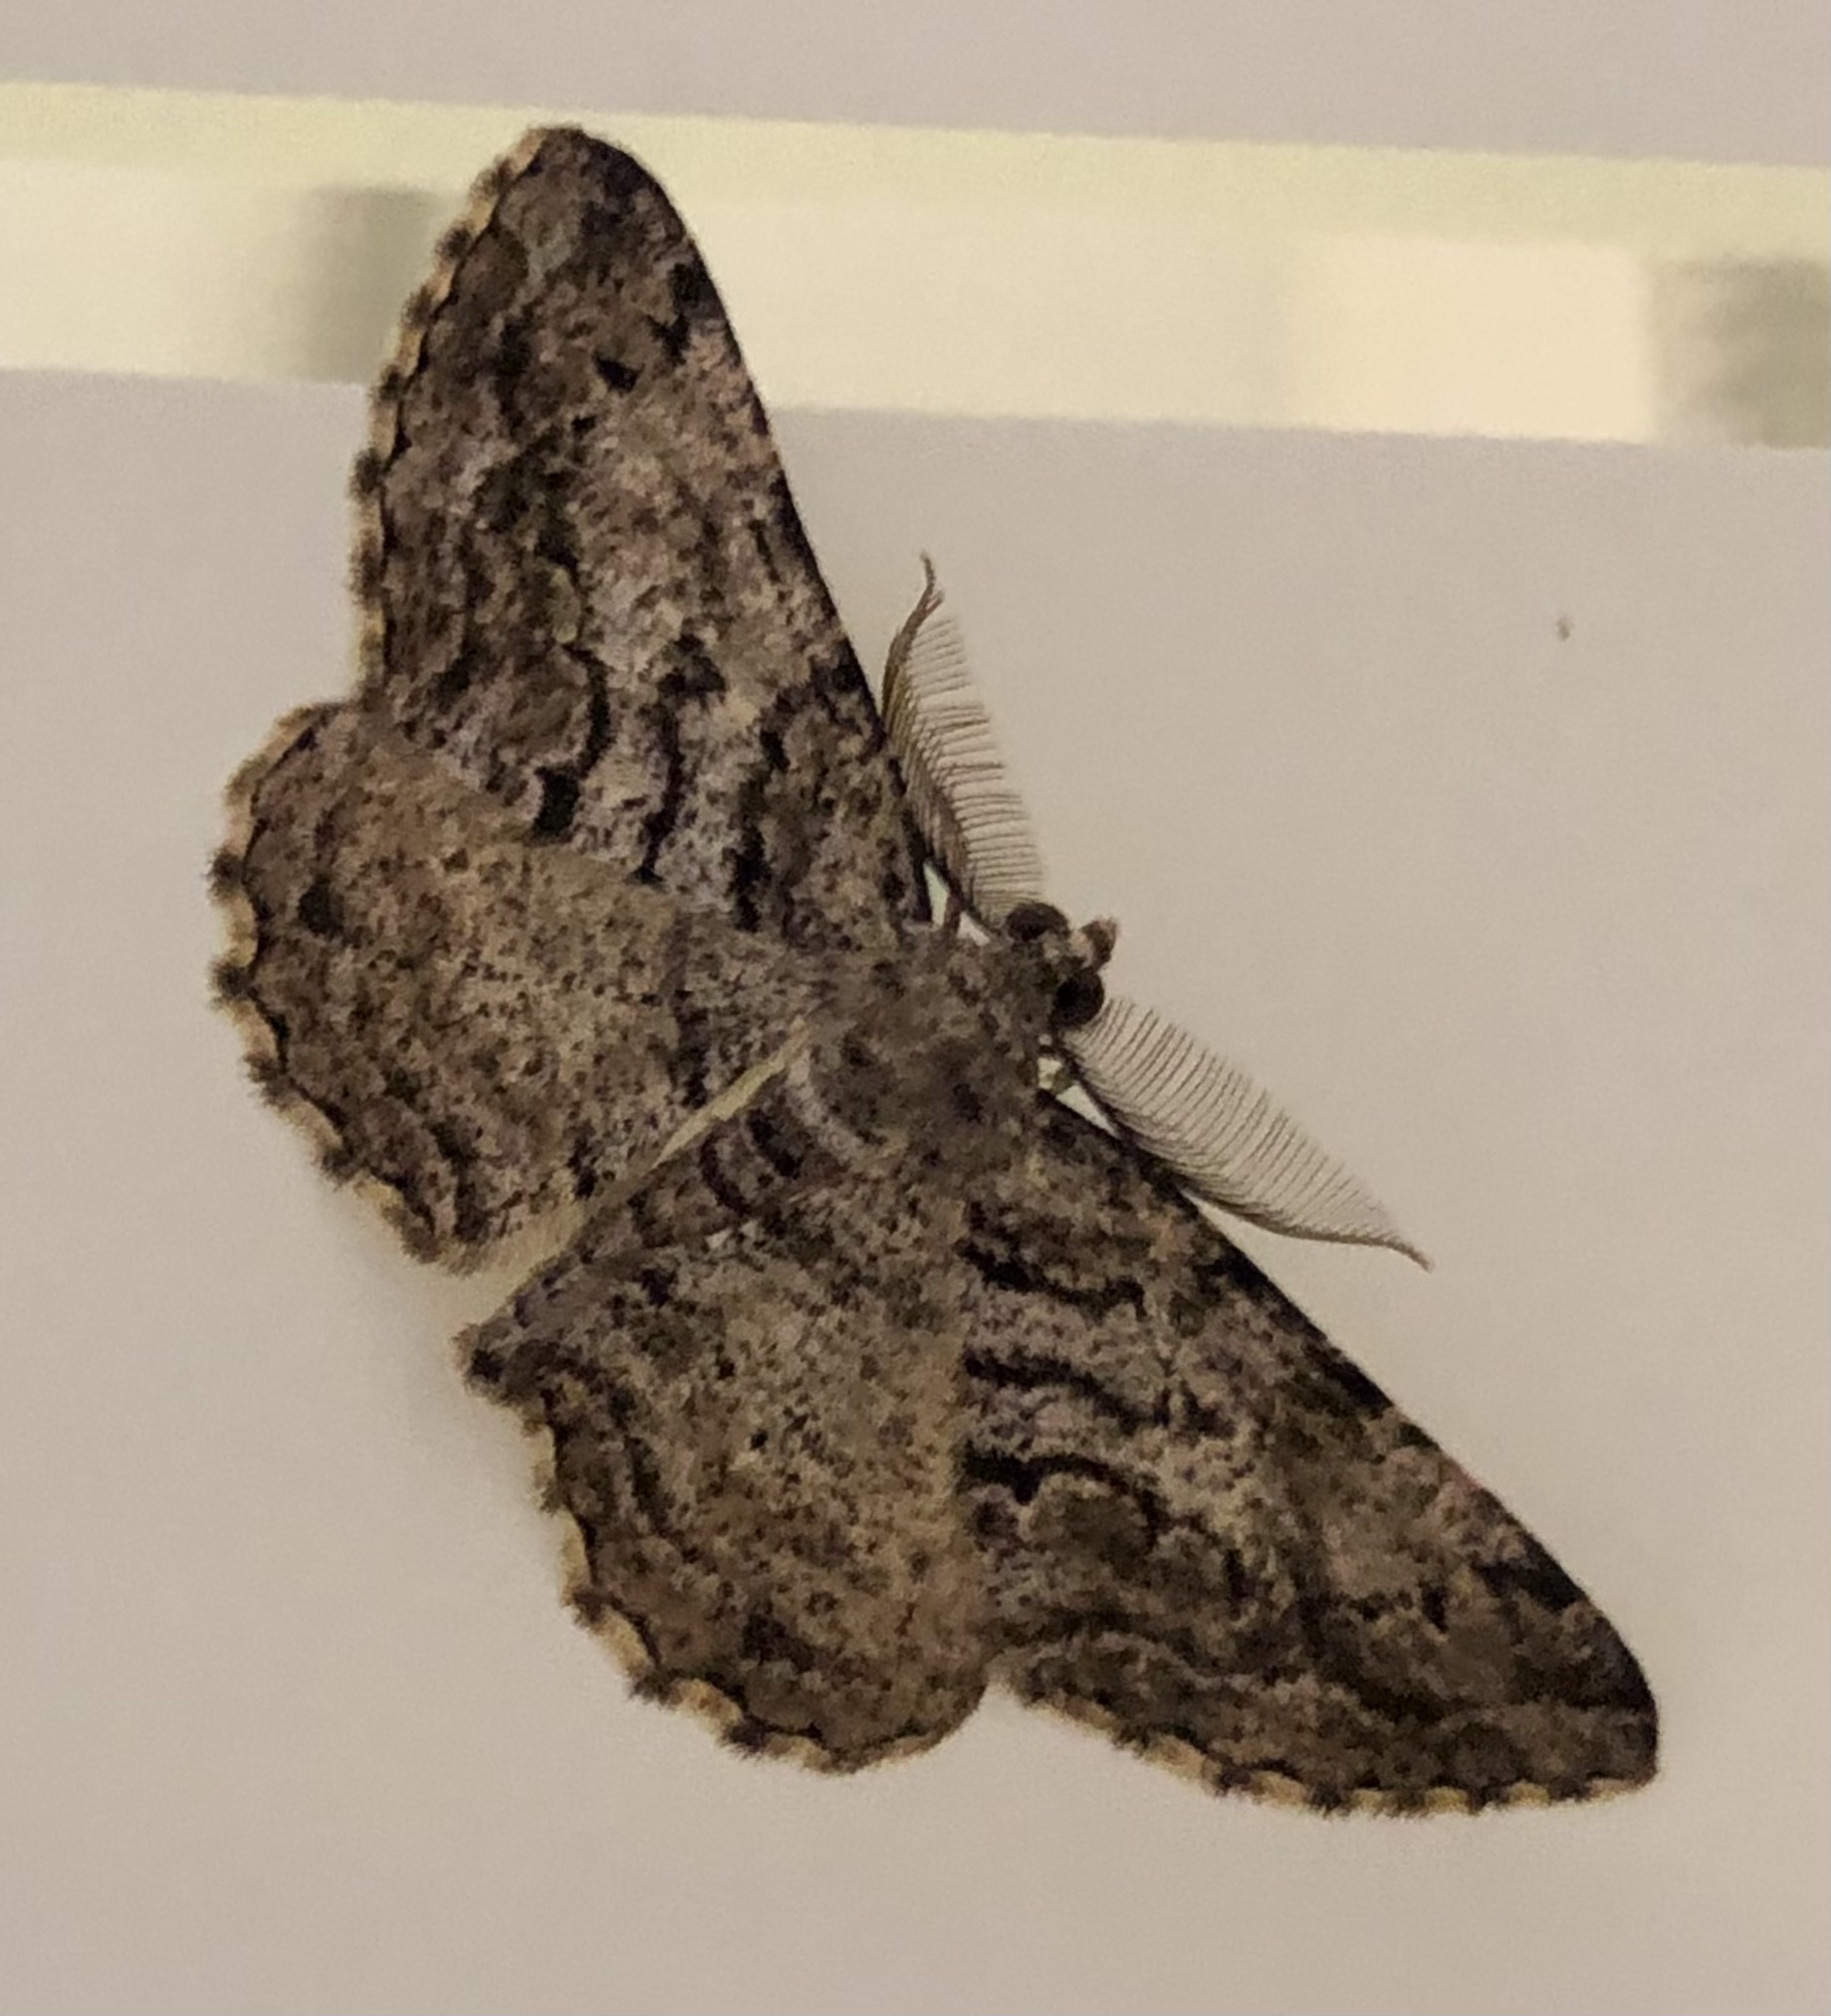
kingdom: Animalia
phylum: Arthropoda
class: Insecta
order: Lepidoptera
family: Geometridae
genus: Peribatodes
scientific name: Peribatodes secundaria
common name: Feathered beauty
